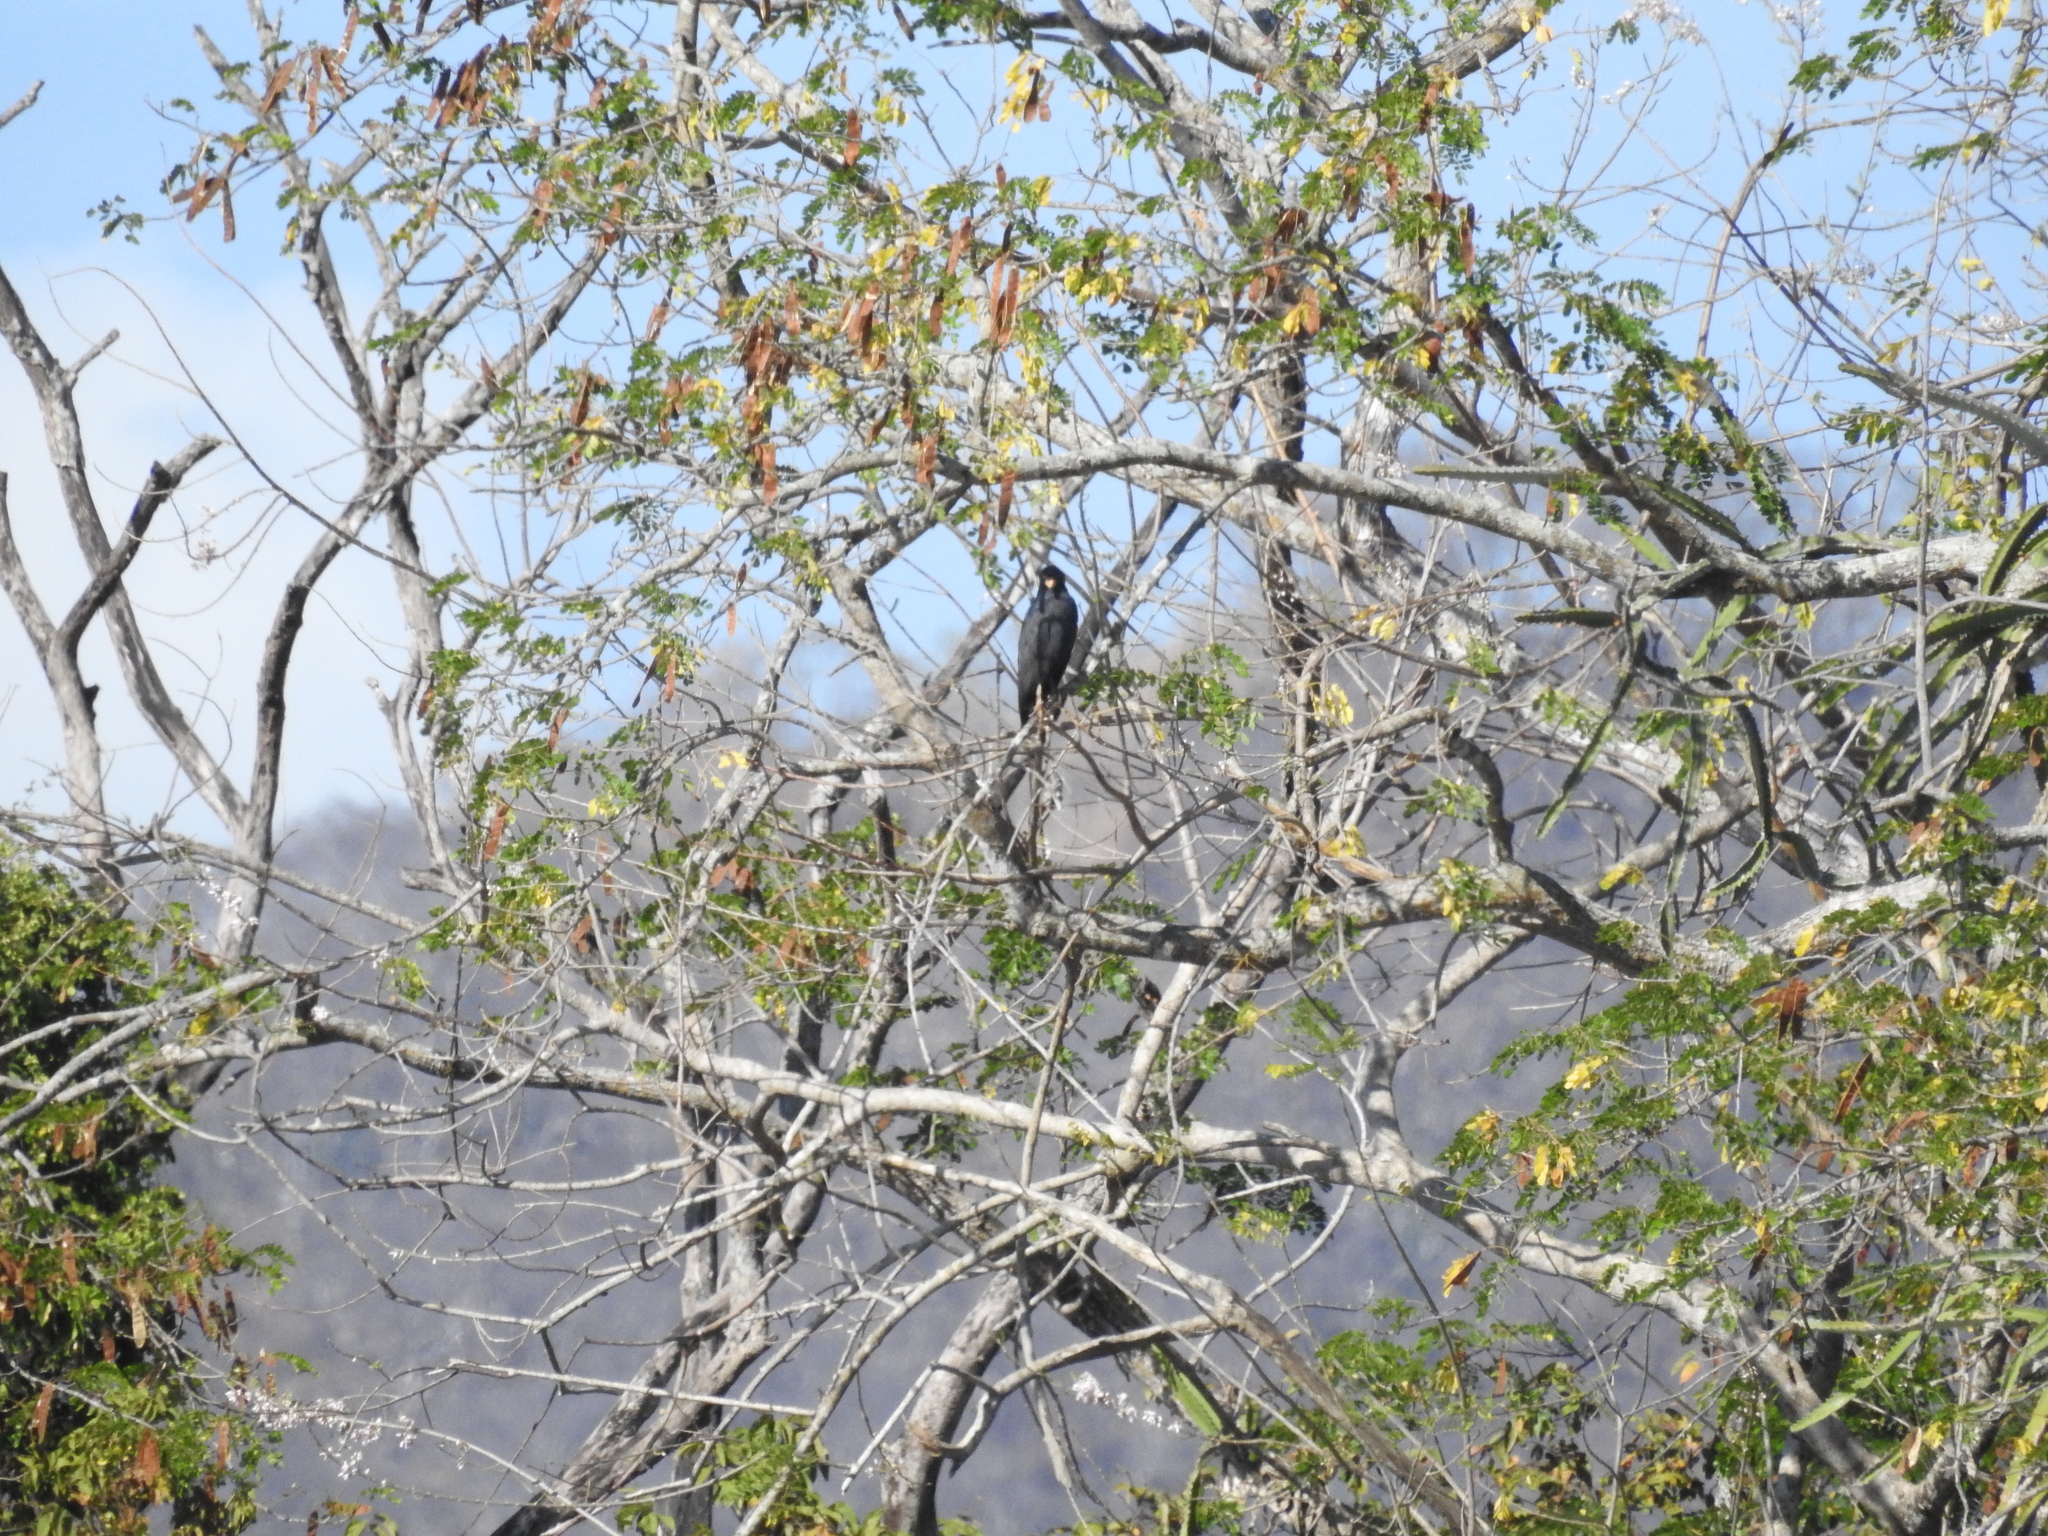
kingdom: Animalia
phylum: Chordata
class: Aves
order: Accipitriformes
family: Accipitridae
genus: Buteogallus
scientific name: Buteogallus anthracinus
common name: Common black hawk
